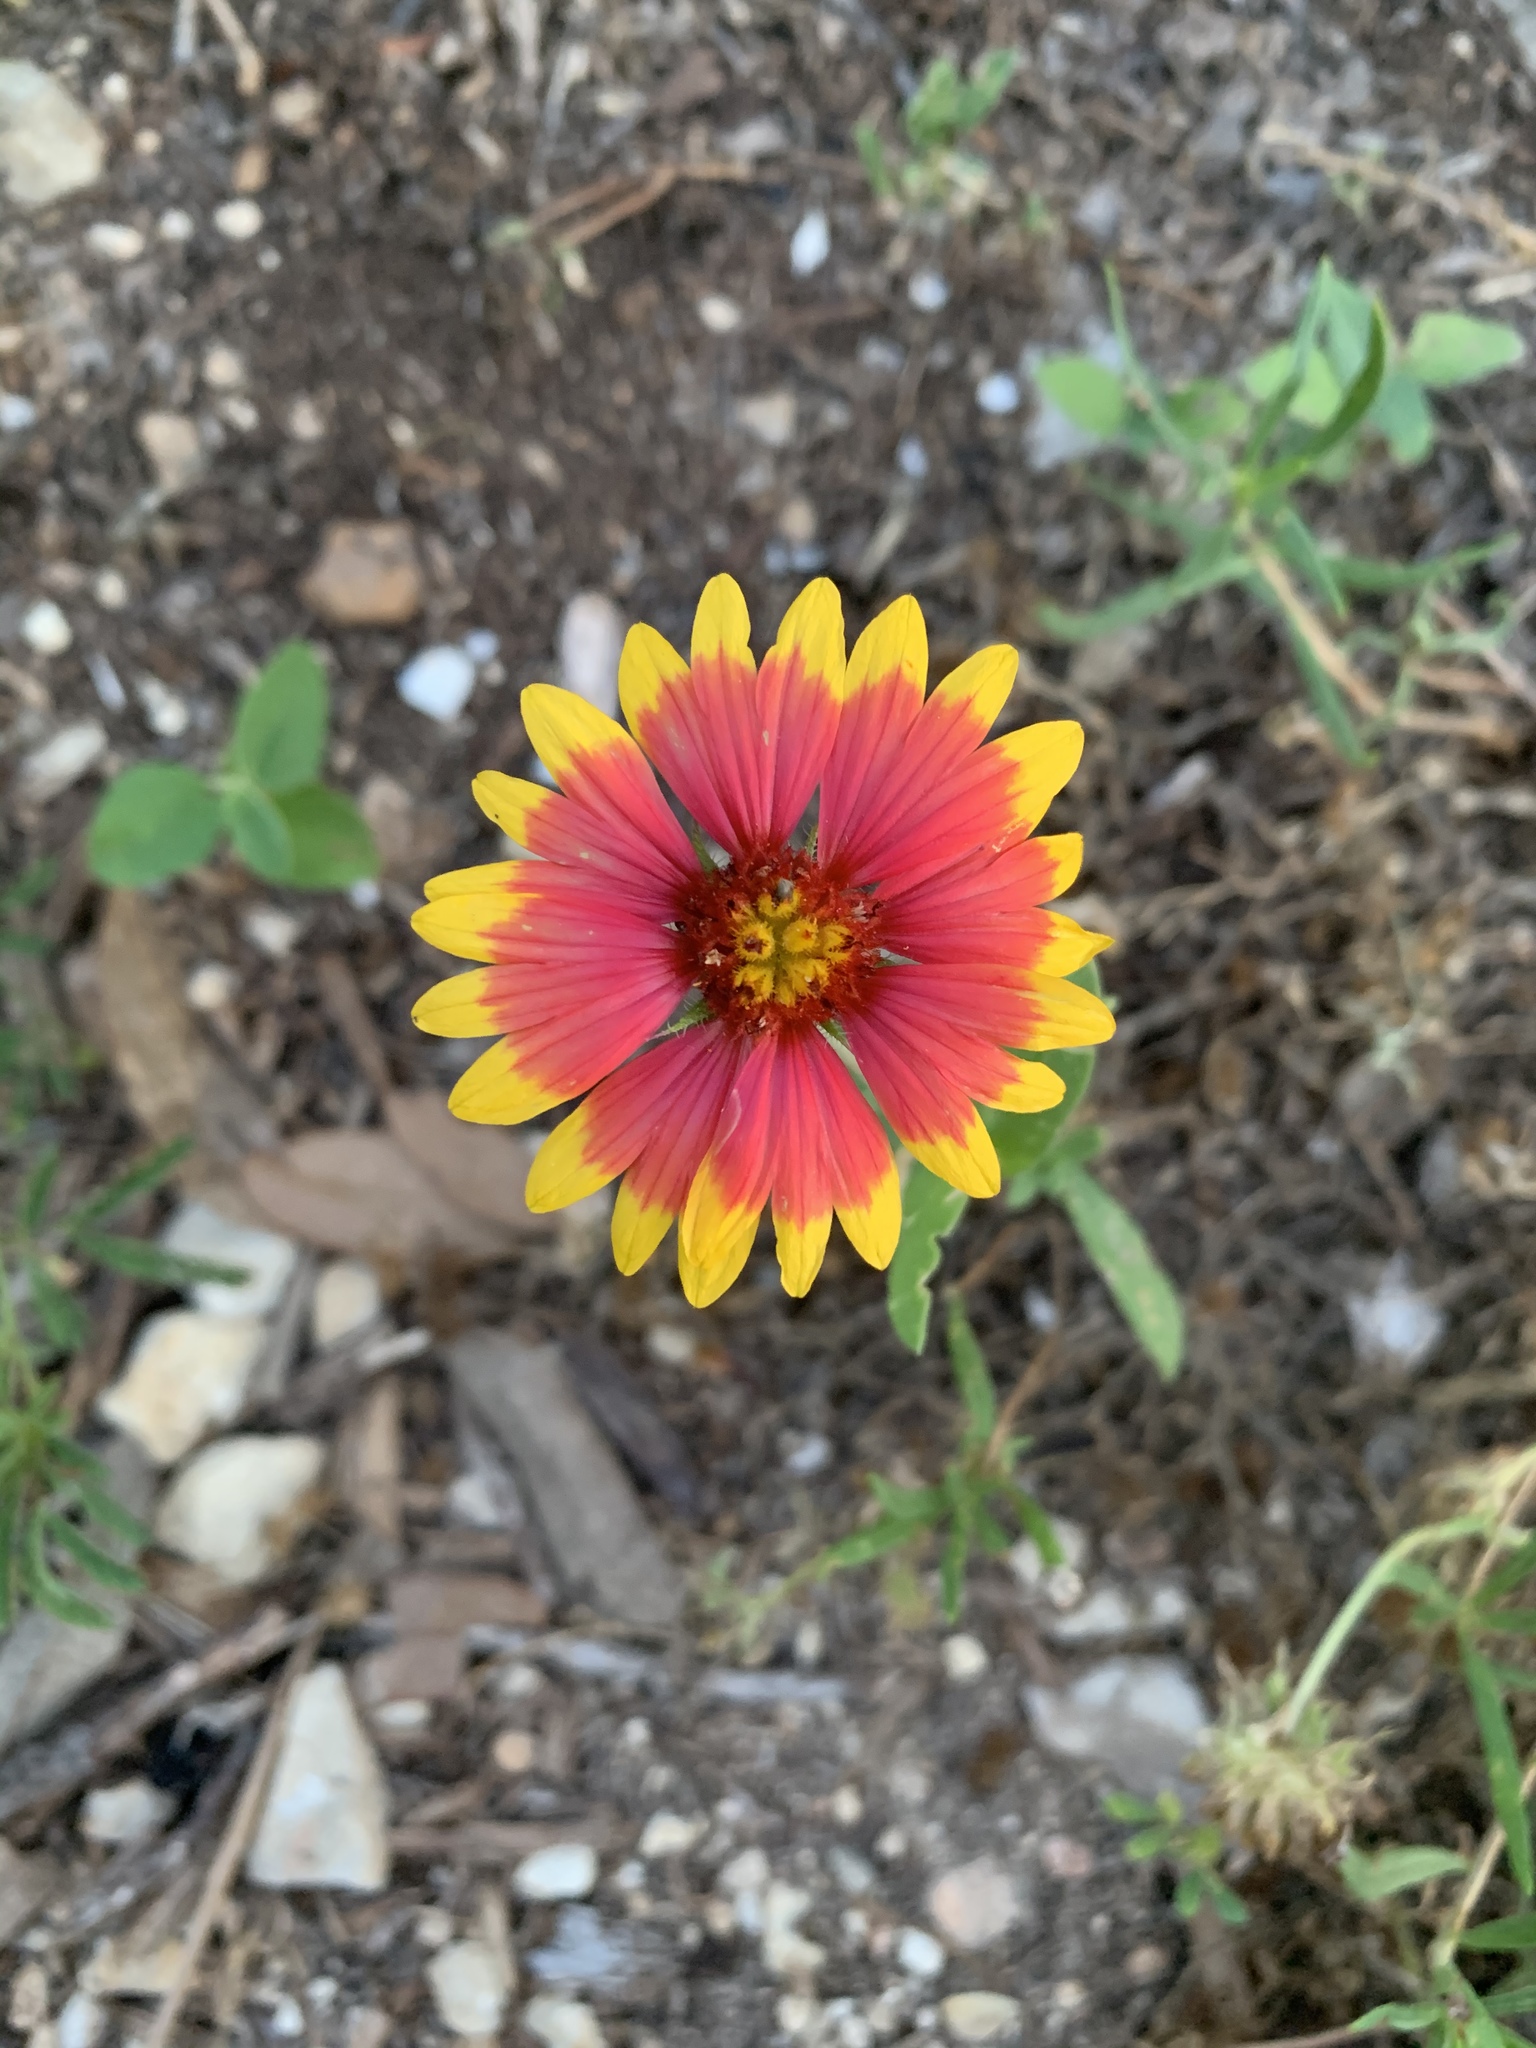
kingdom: Plantae
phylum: Tracheophyta
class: Magnoliopsida
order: Asterales
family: Asteraceae
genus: Gaillardia
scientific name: Gaillardia pulchella
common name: Firewheel
